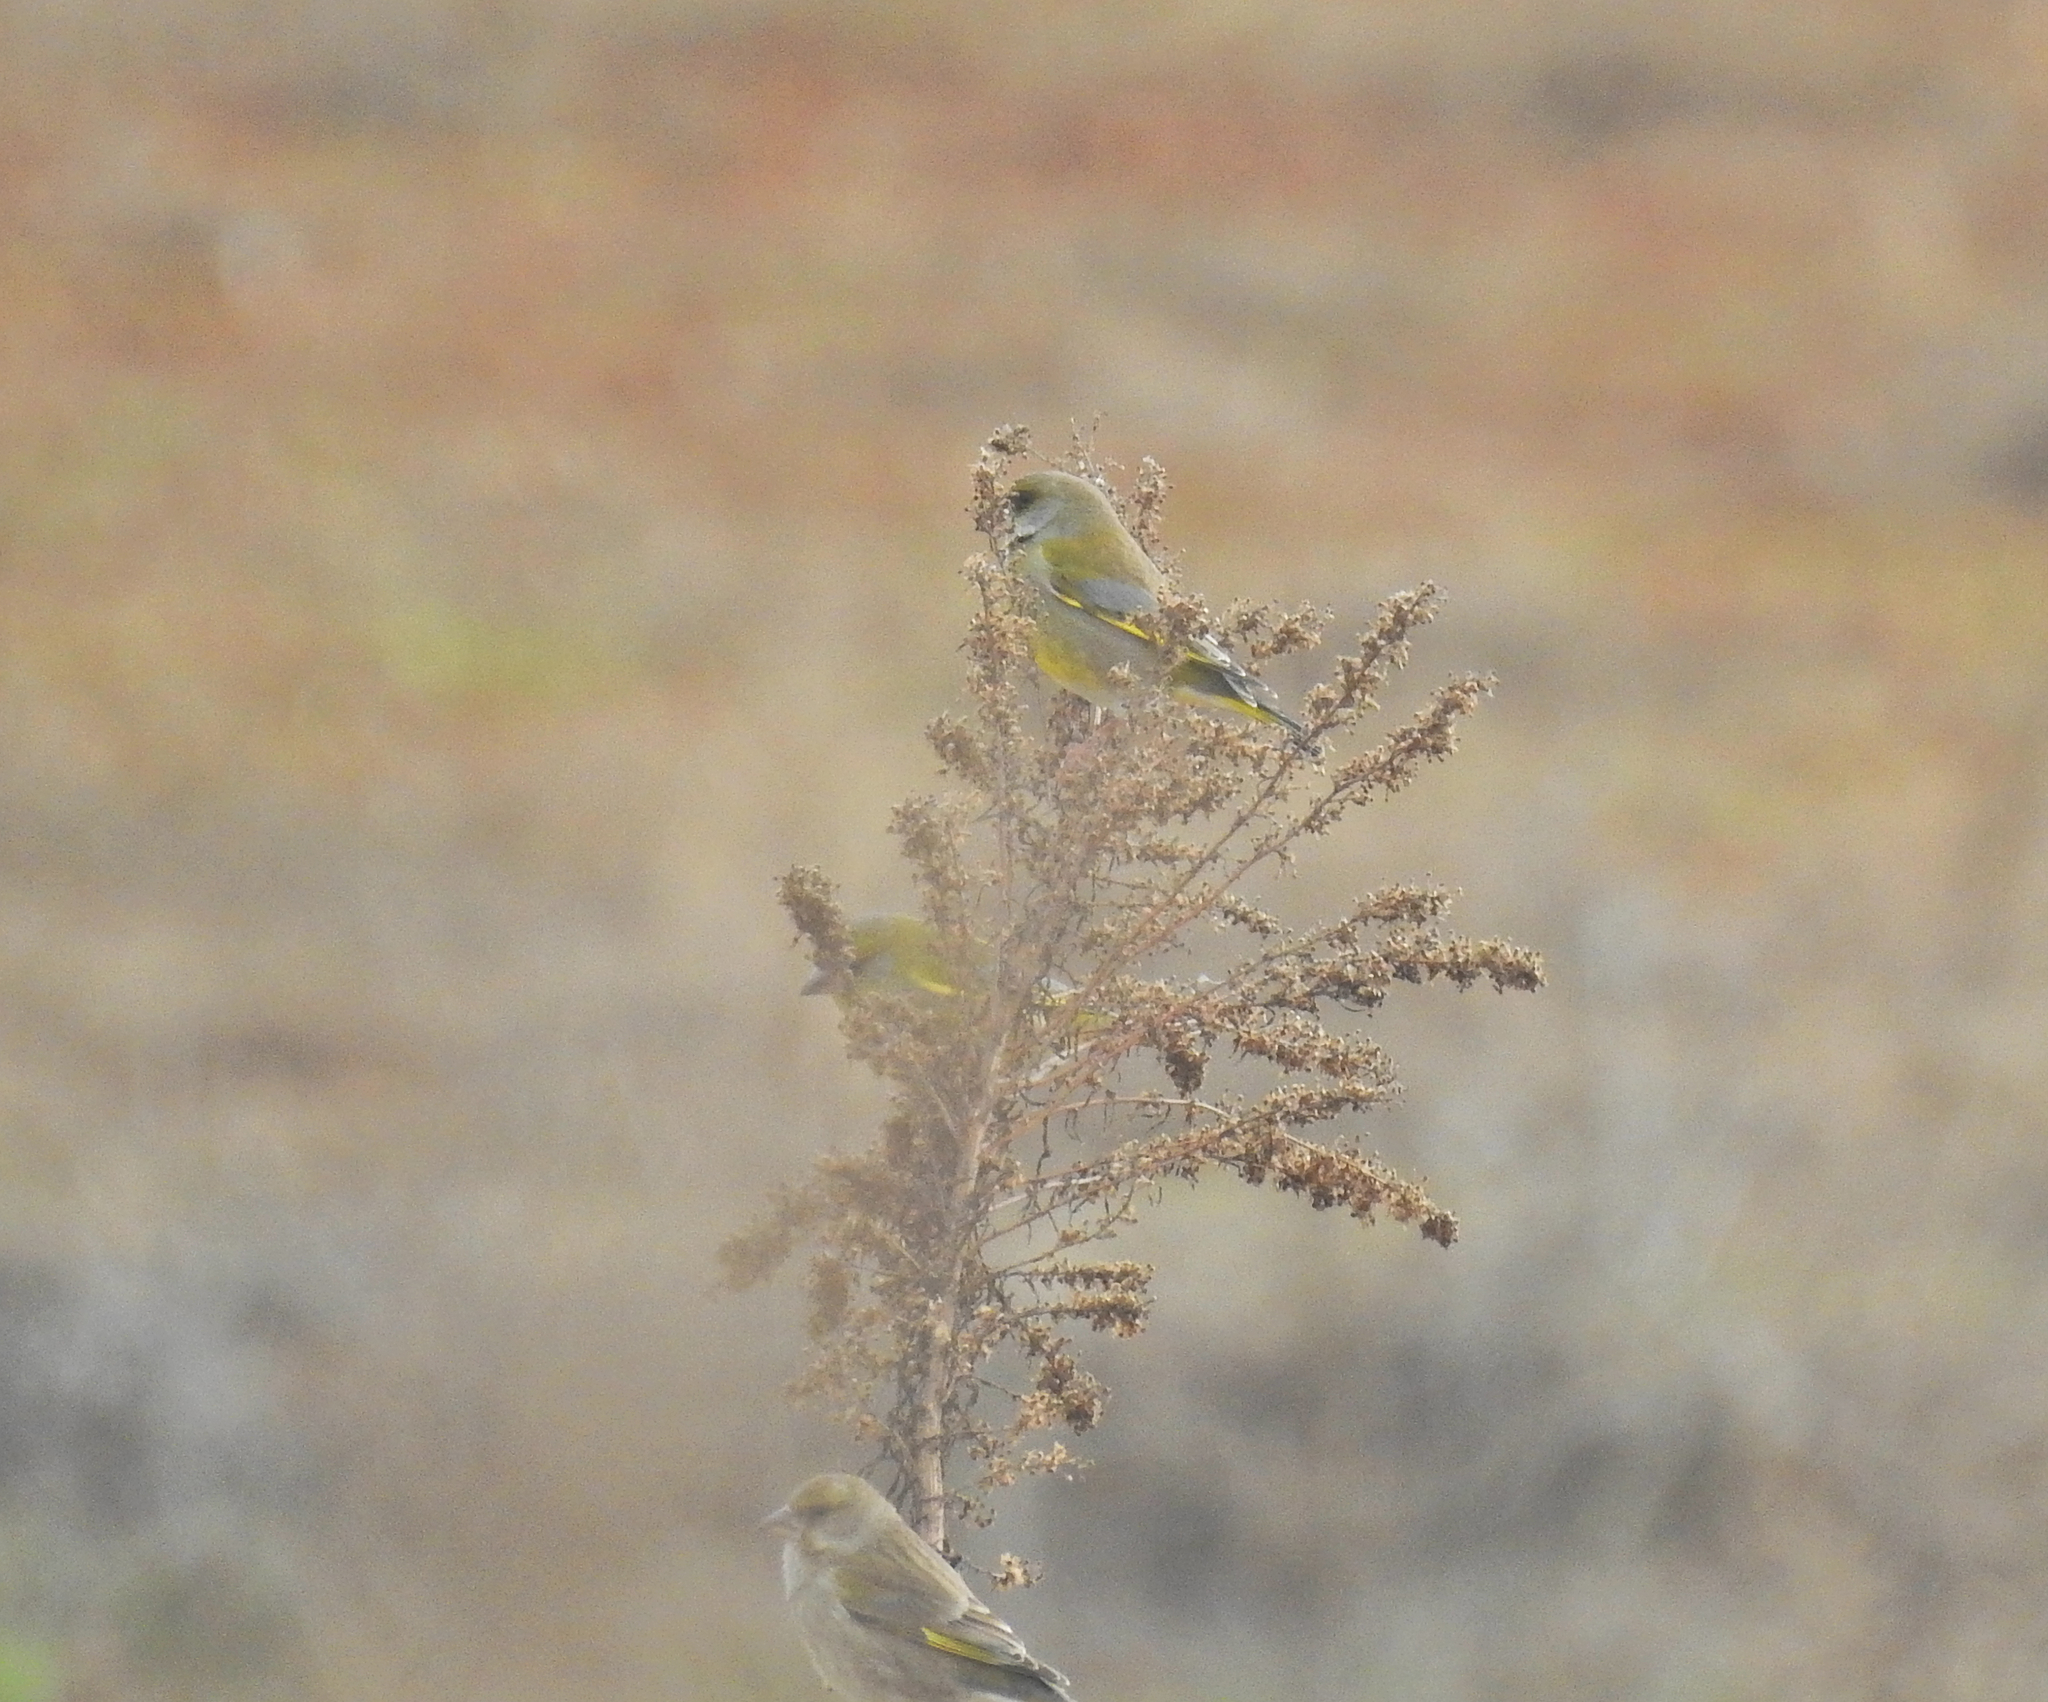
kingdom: Plantae
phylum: Tracheophyta
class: Liliopsida
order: Poales
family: Poaceae
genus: Chloris
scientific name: Chloris chloris
